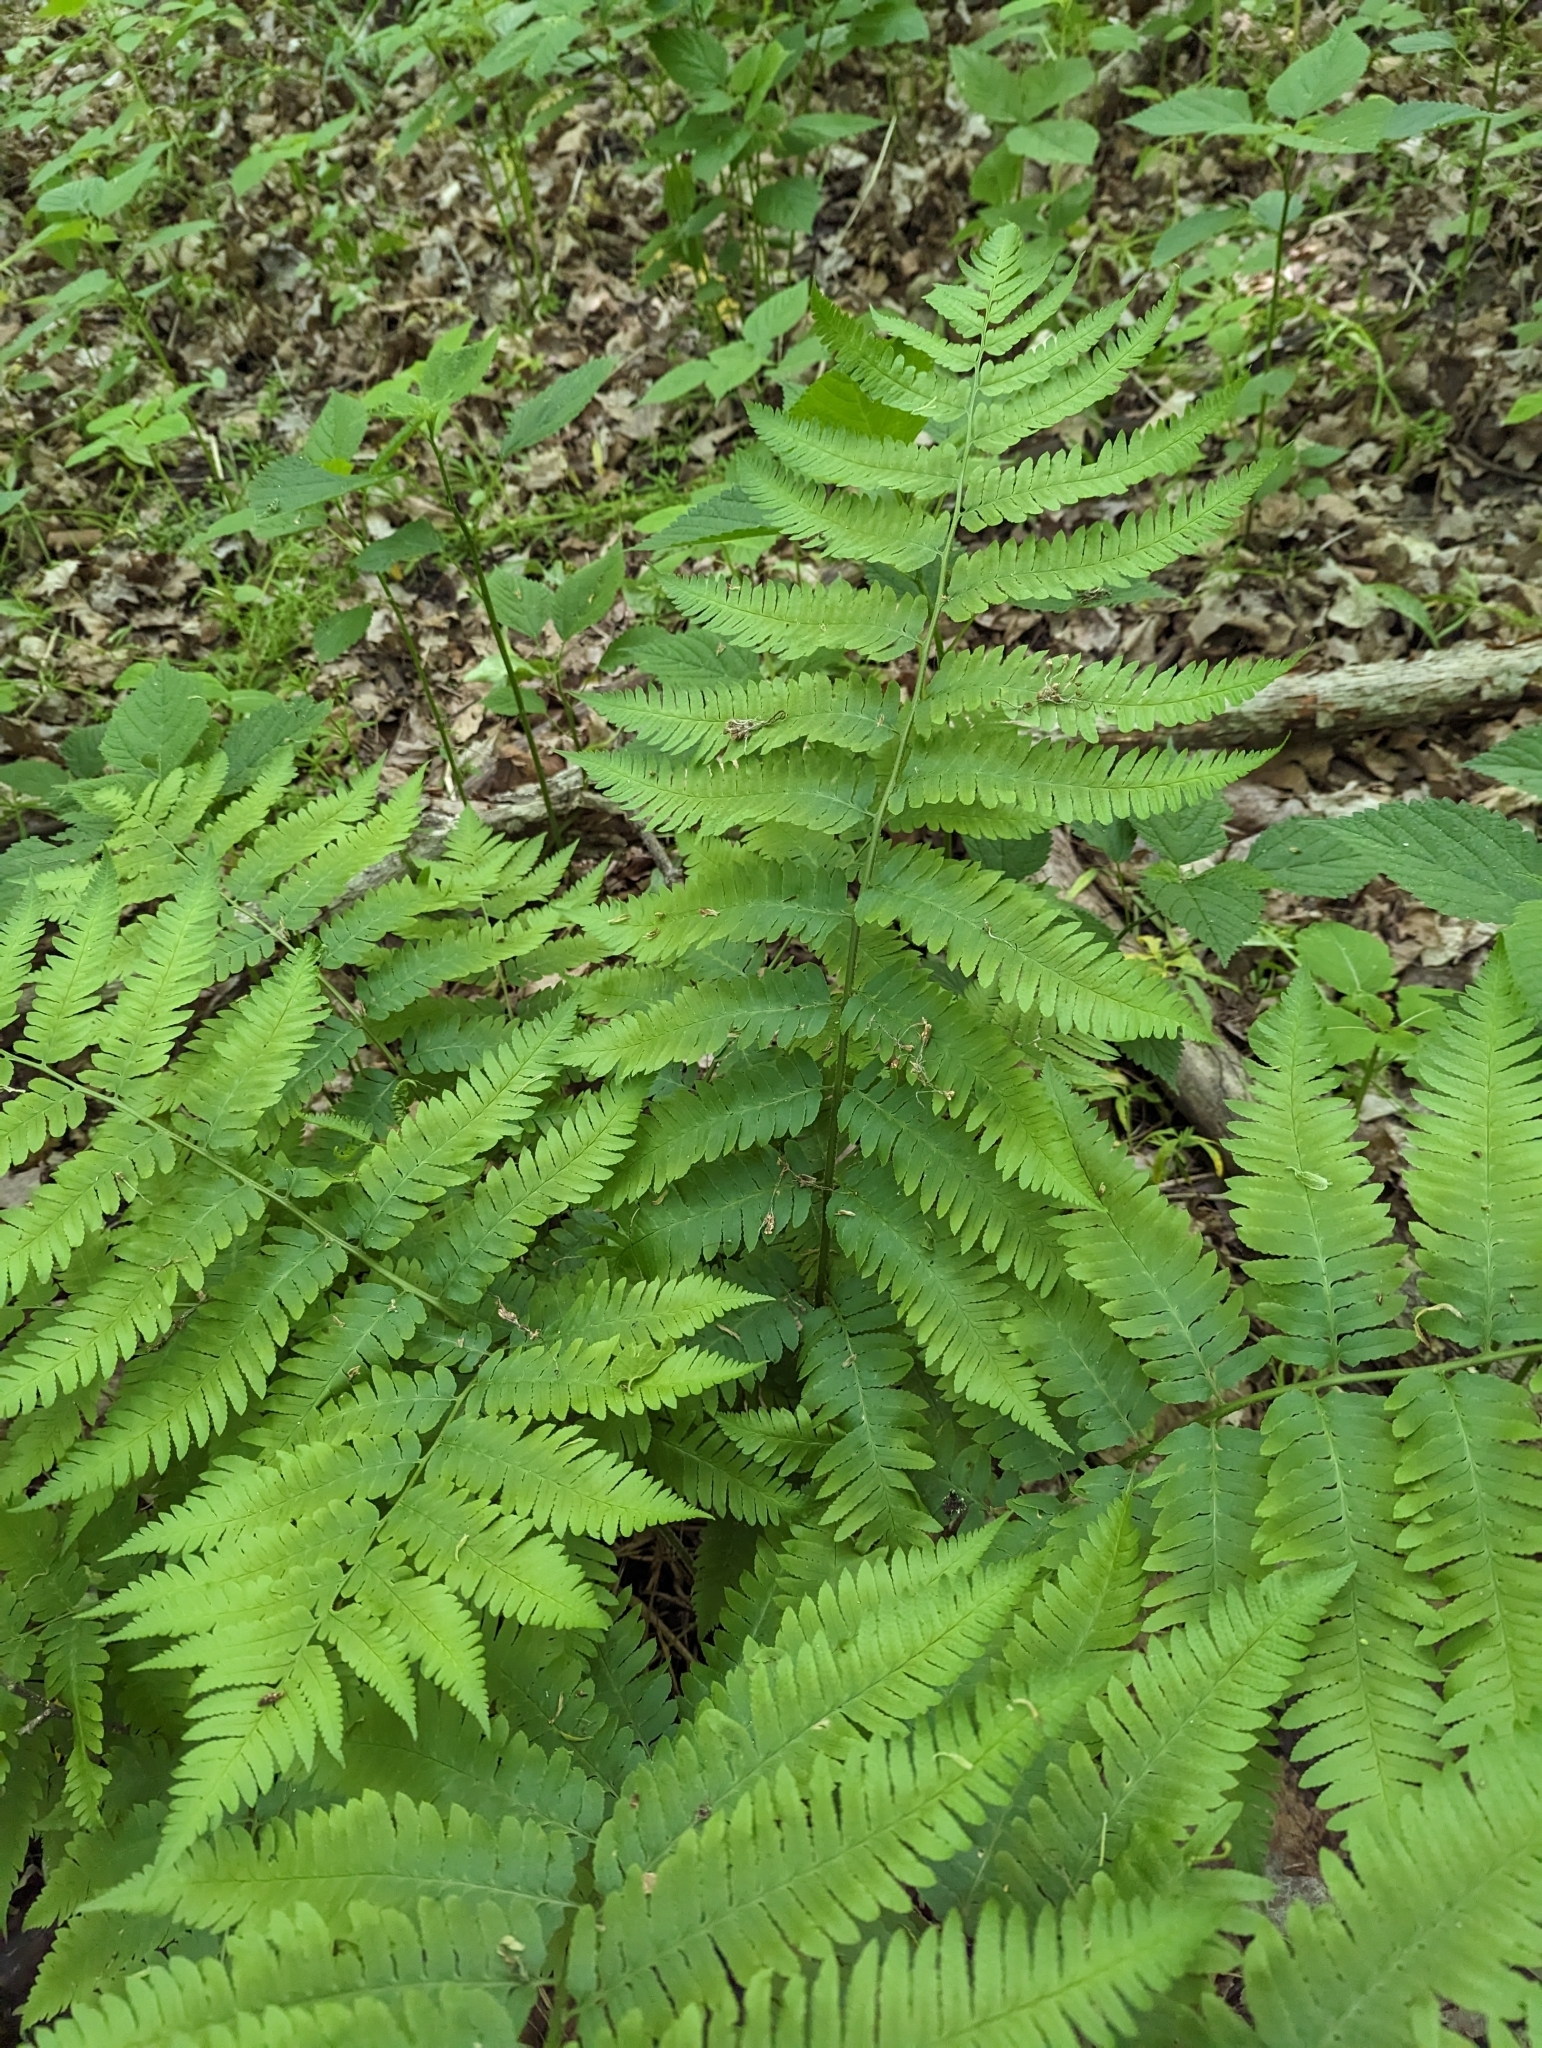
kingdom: Plantae
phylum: Tracheophyta
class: Polypodiopsida
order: Polypodiales
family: Dryopteridaceae
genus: Dryopteris
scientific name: Dryopteris goldieana
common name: Goldie's fern
